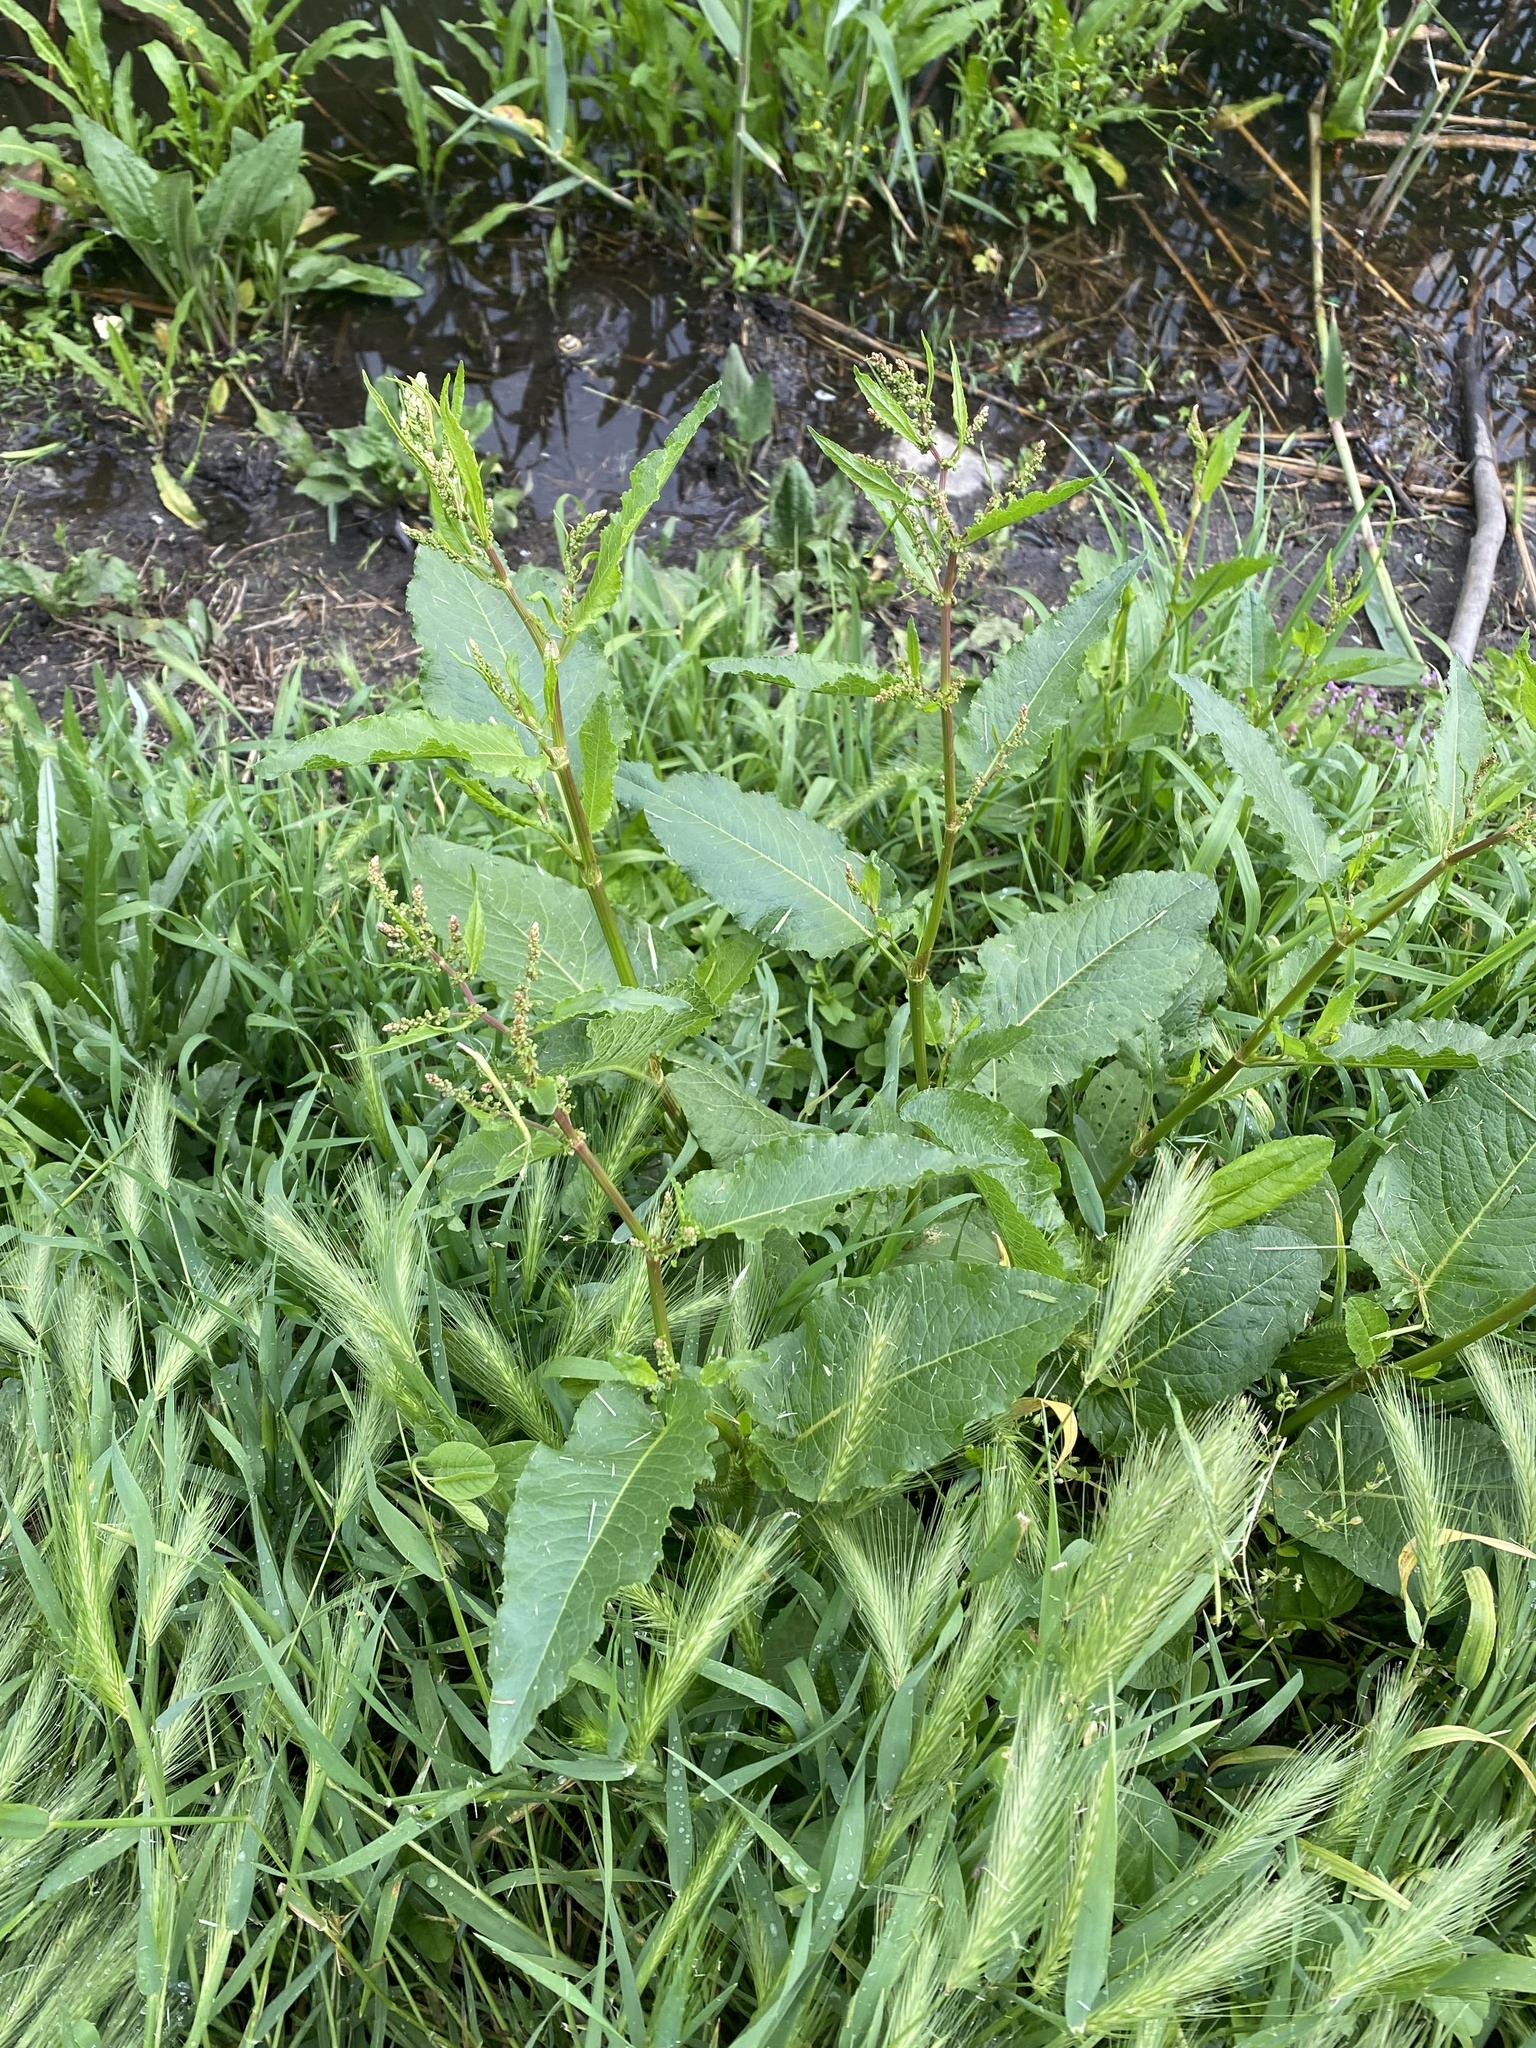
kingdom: Plantae
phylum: Tracheophyta
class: Magnoliopsida
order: Caryophyllales
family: Polygonaceae
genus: Rumex
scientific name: Rumex obtusifolius
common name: Bitter dock
